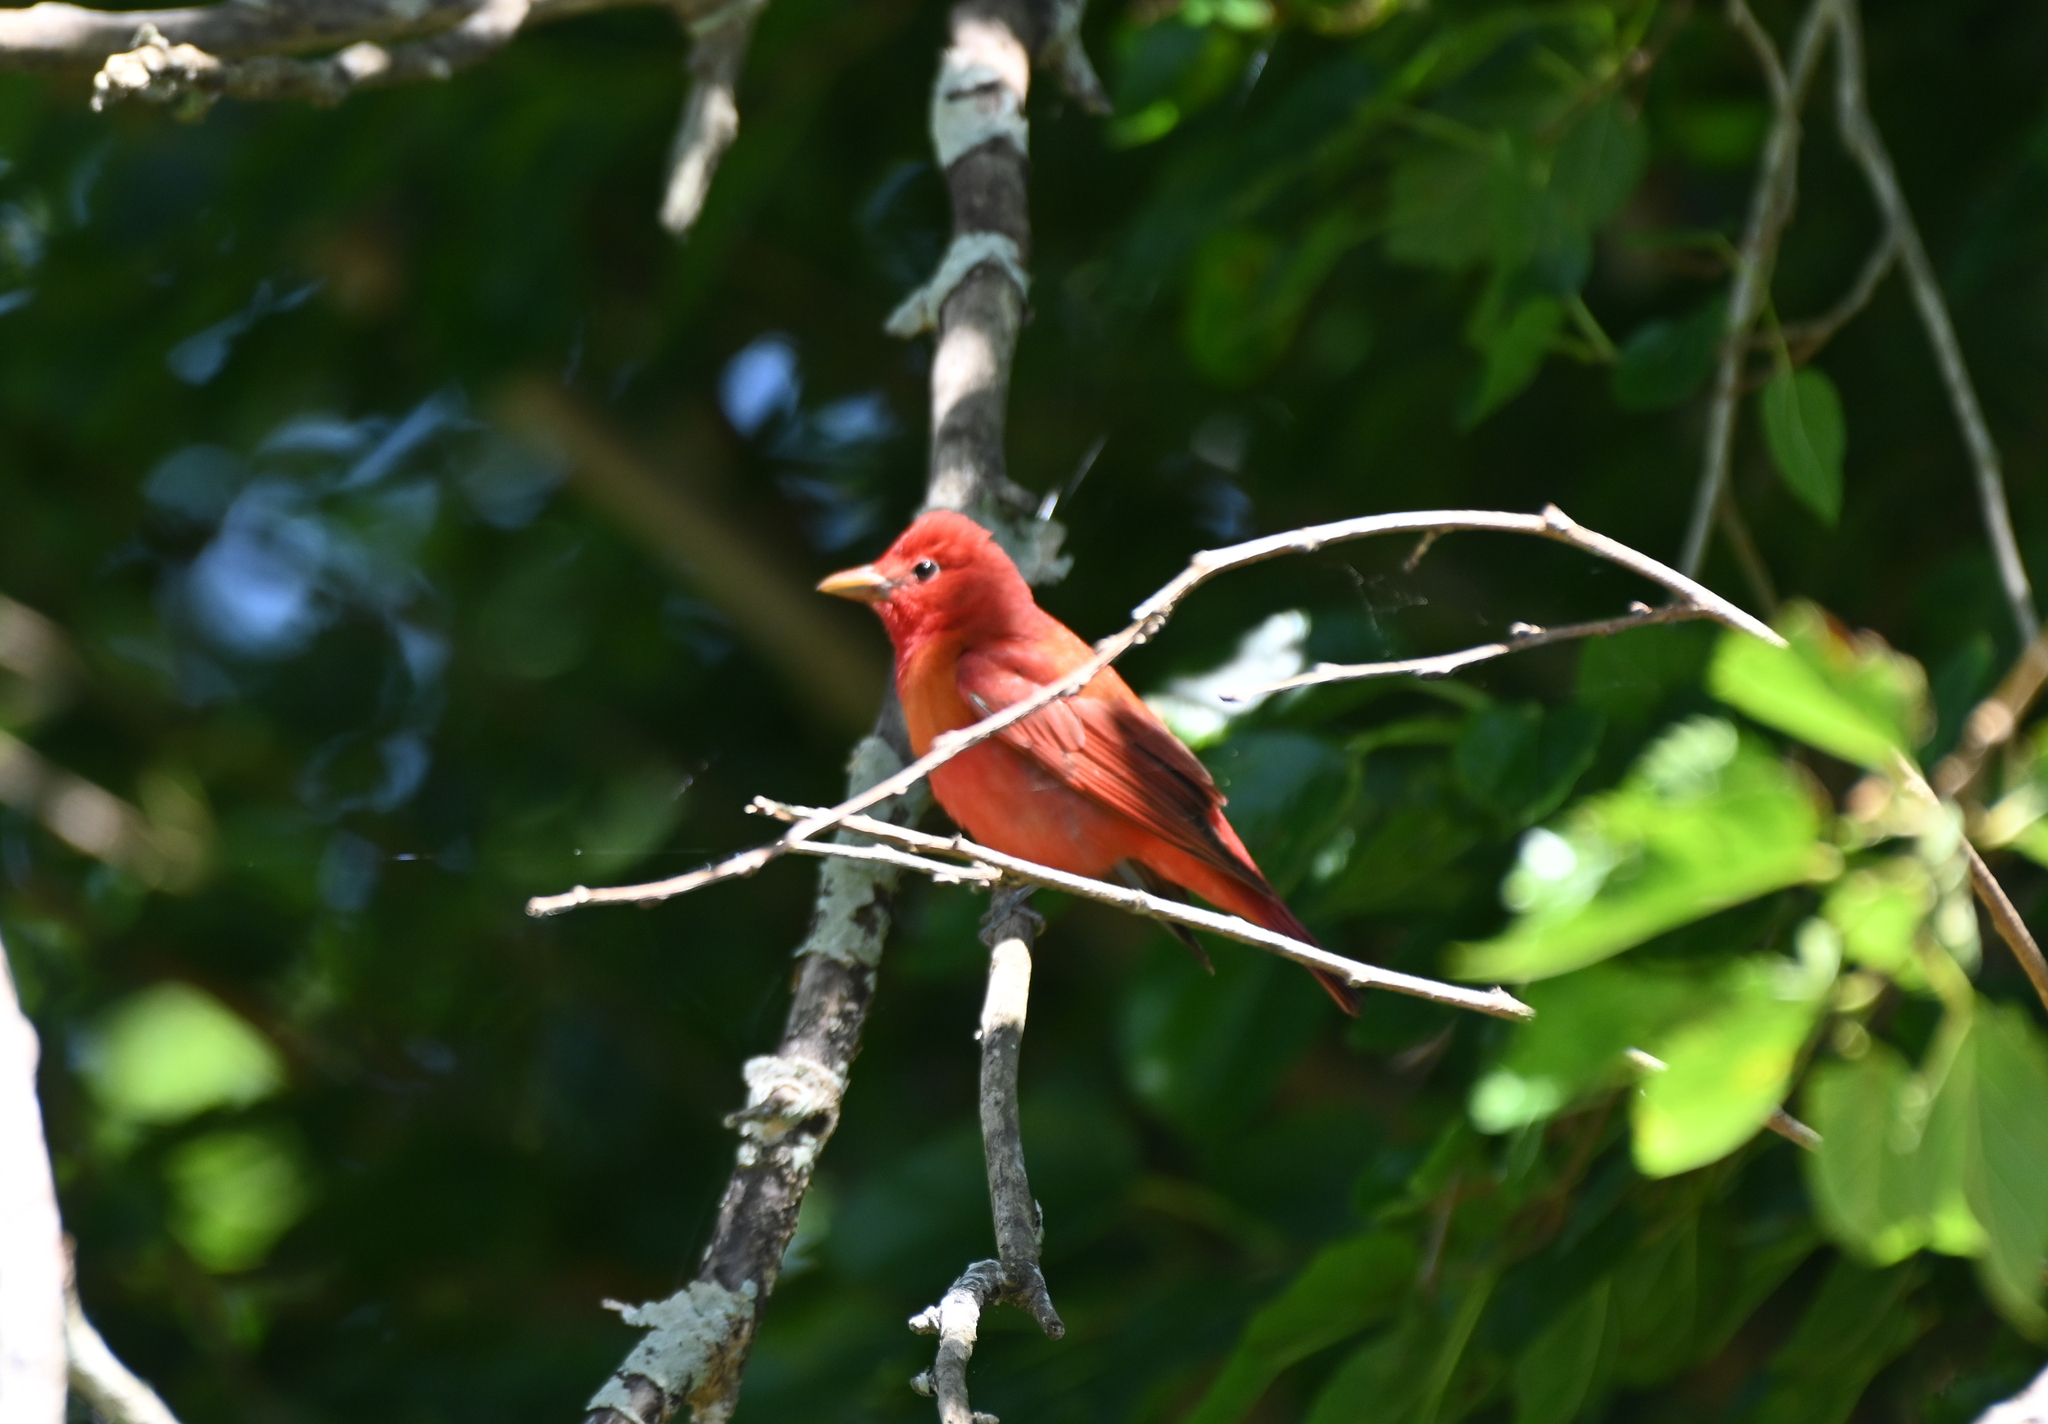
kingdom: Animalia
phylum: Chordata
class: Aves
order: Passeriformes
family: Cardinalidae
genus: Piranga
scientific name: Piranga rubra
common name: Summer tanager
